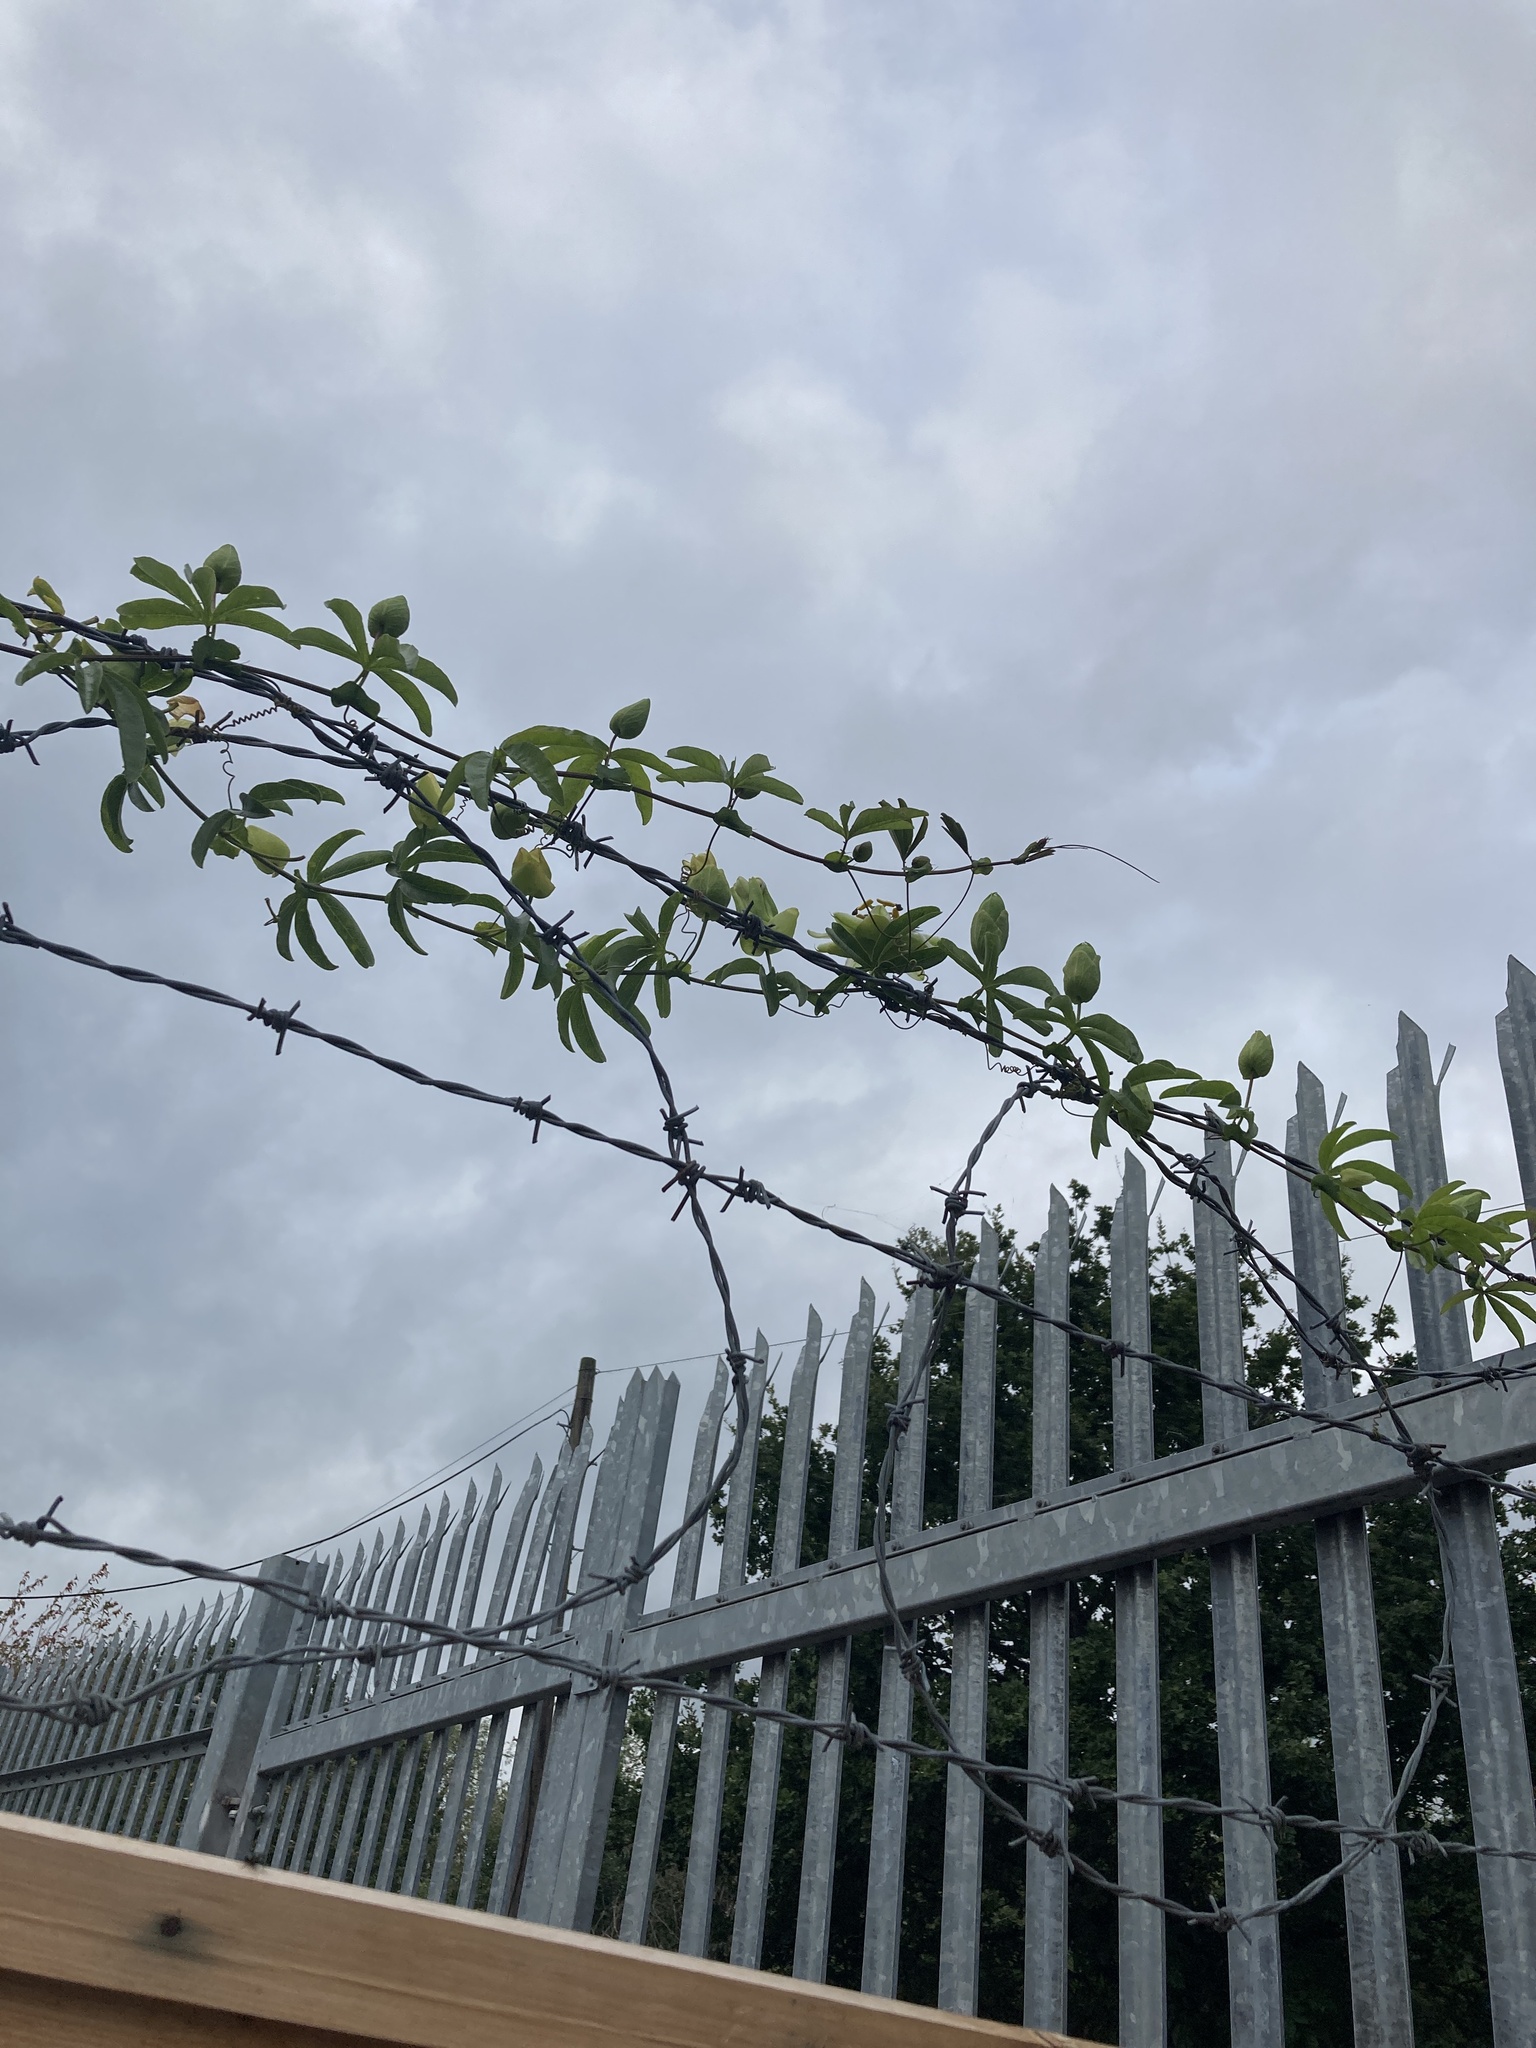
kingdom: Plantae
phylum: Tracheophyta
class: Magnoliopsida
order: Malpighiales
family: Passifloraceae
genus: Passiflora
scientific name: Passiflora caerulea
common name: Blue passionflower
